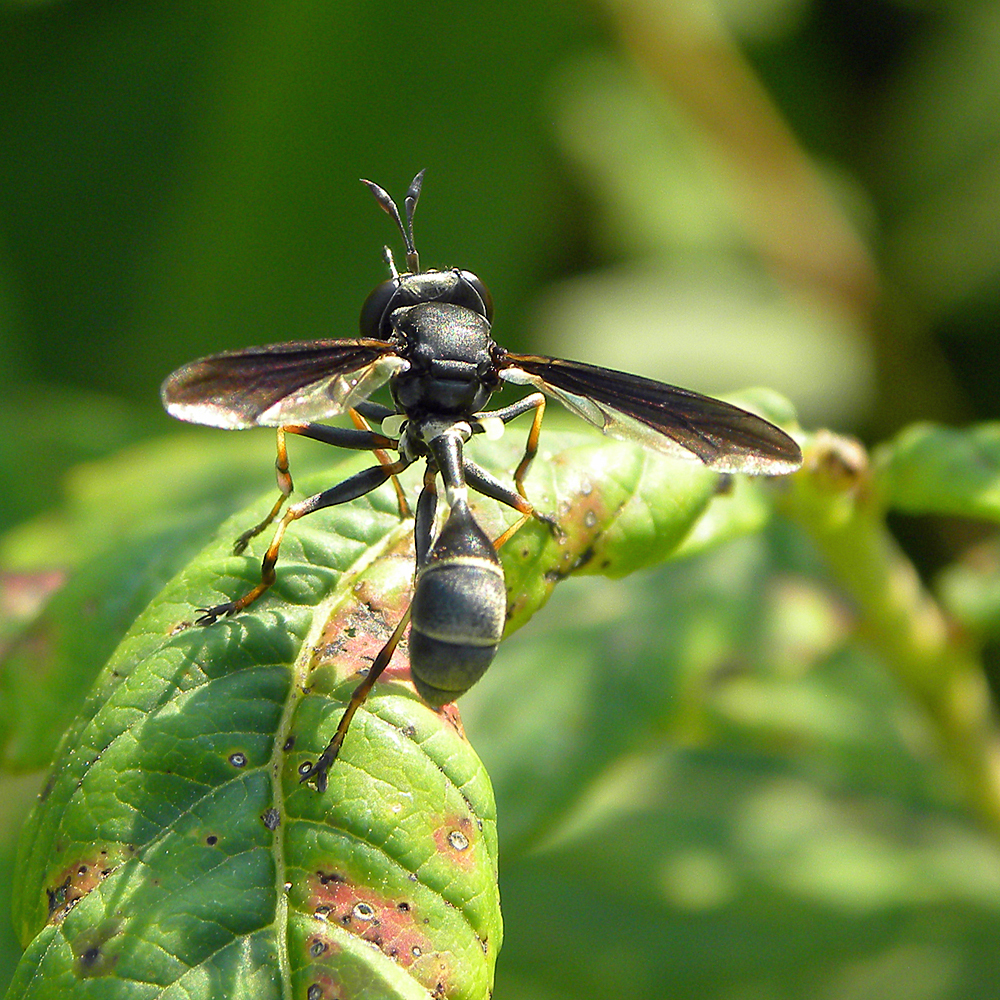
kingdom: Animalia
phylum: Arthropoda
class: Insecta
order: Diptera
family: Conopidae
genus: Physocephala
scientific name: Physocephala tibialis
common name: Common eastern physocephala
